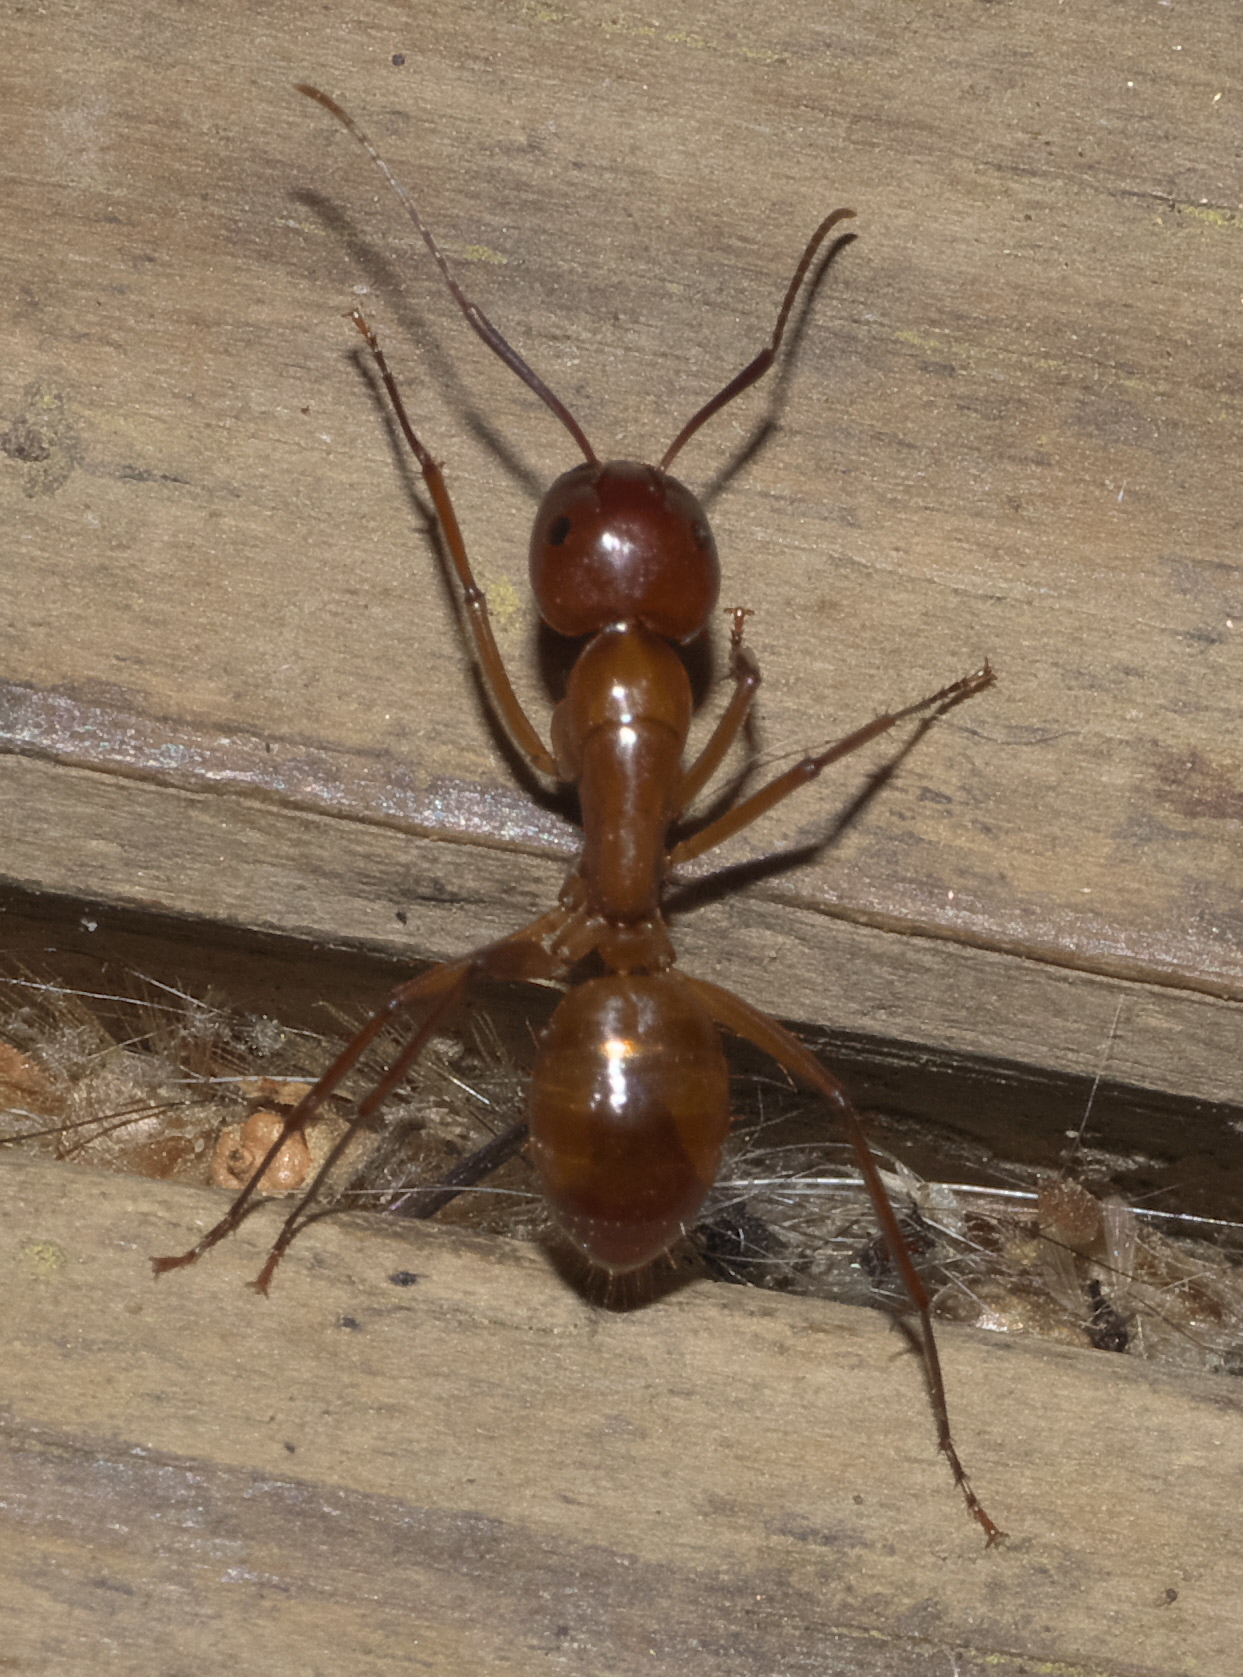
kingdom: Animalia
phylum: Arthropoda
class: Insecta
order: Hymenoptera
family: Formicidae
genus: Camponotus
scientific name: Camponotus castaneus
